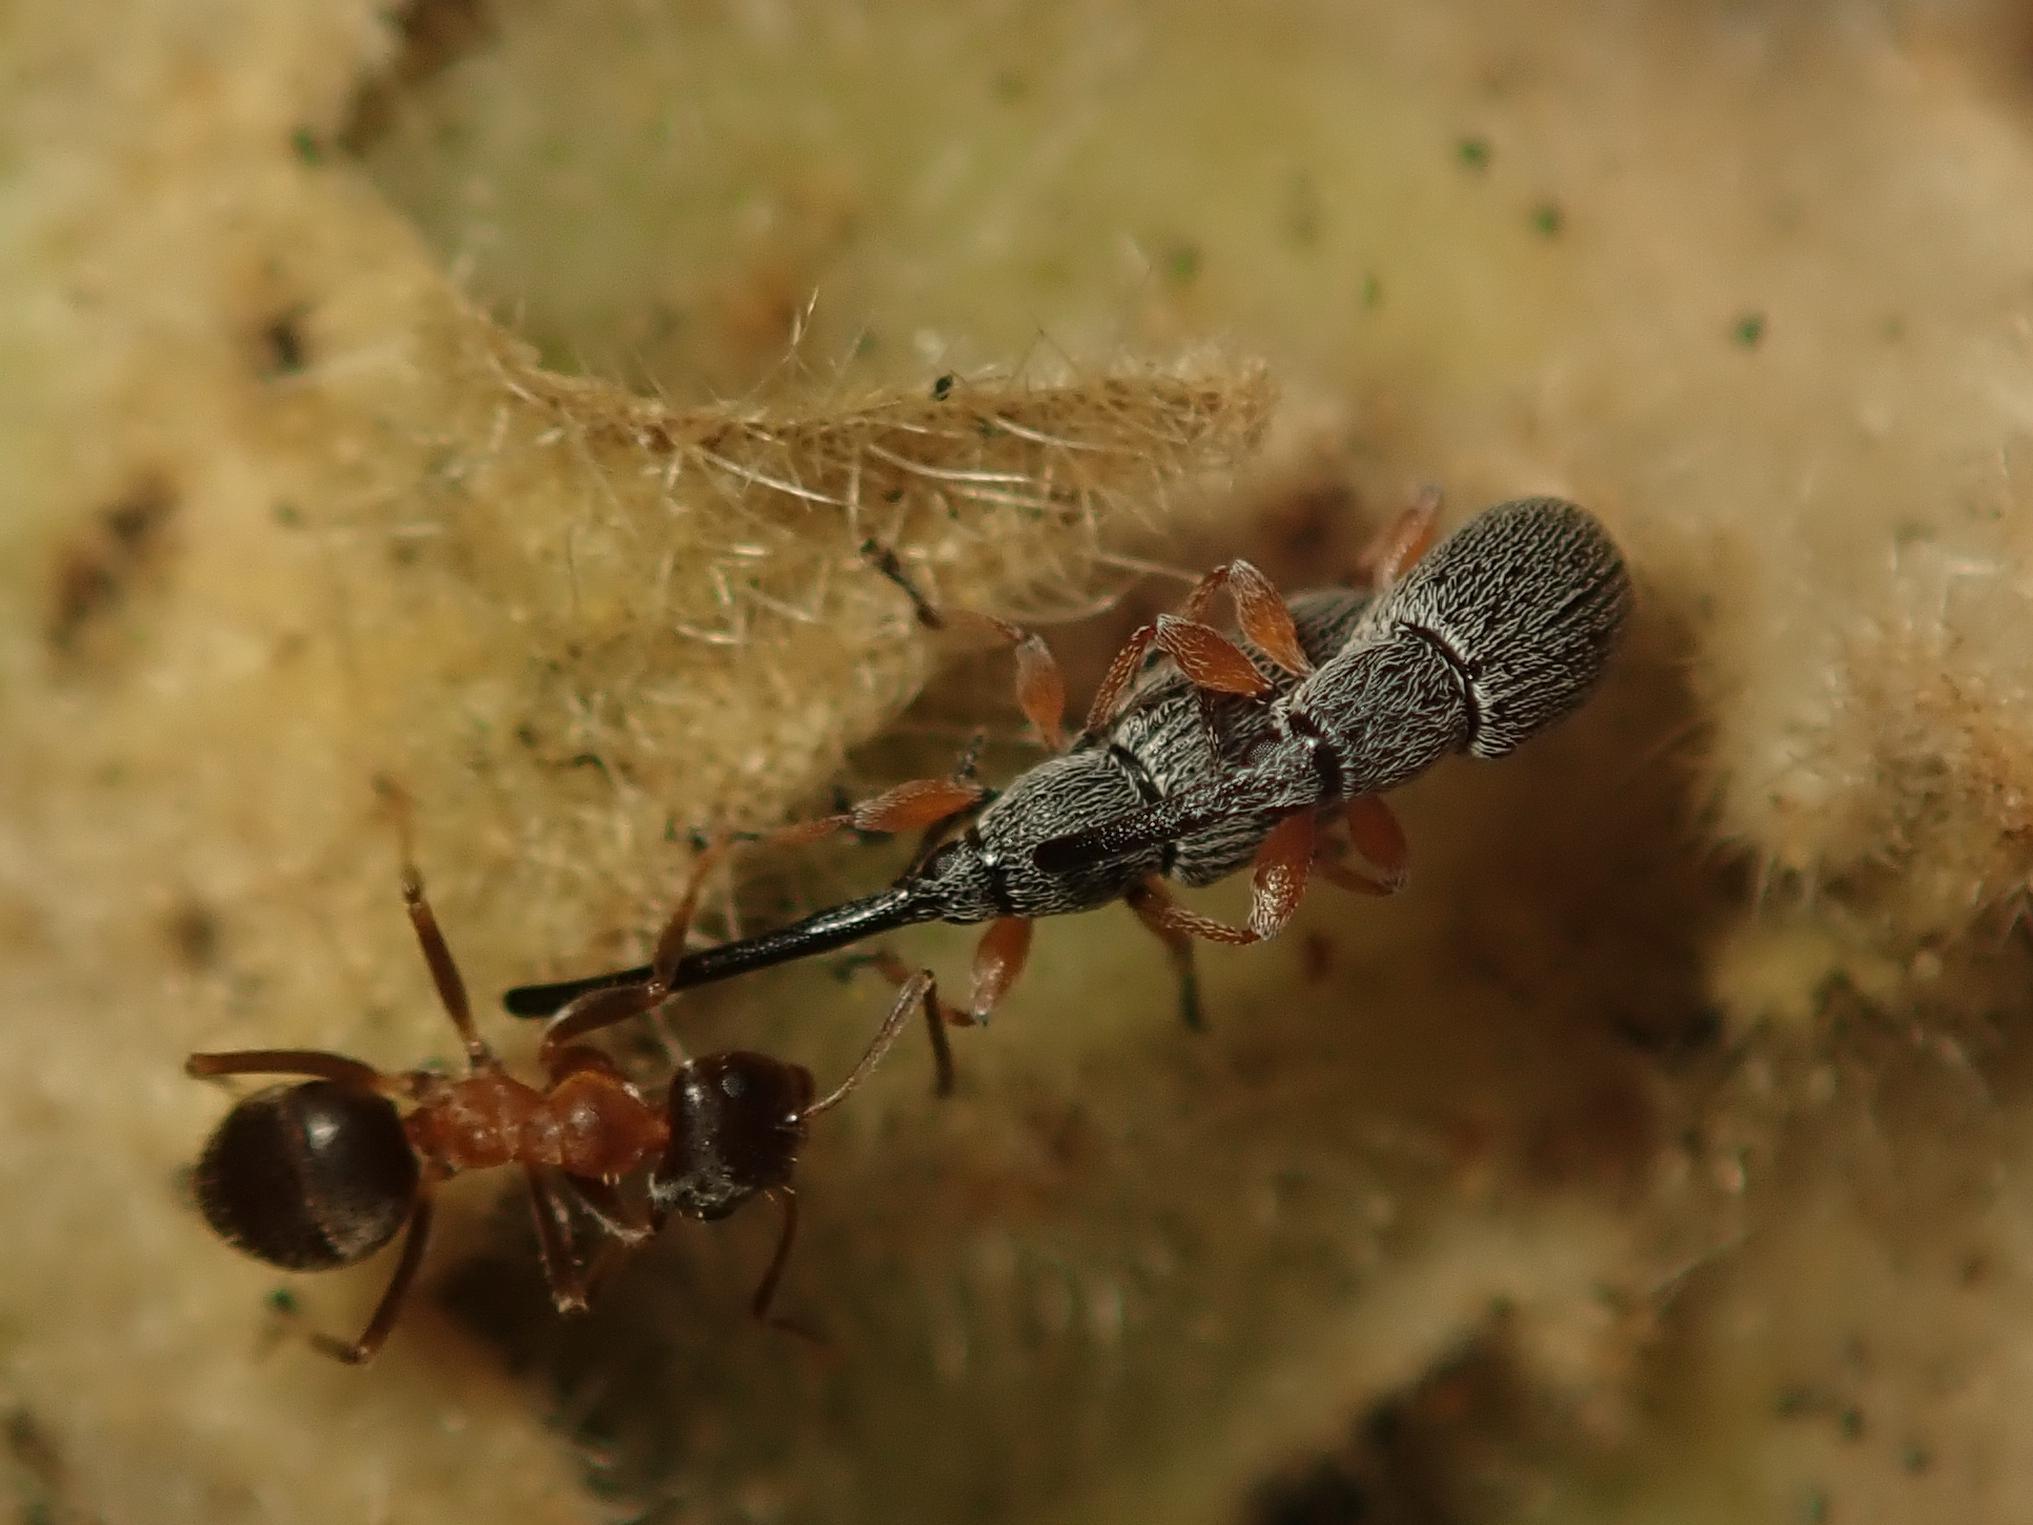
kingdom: Animalia
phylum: Arthropoda
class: Insecta
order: Coleoptera
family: Brentidae
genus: Rhopalapion
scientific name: Rhopalapion longirostre
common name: Hollyhock weevil
